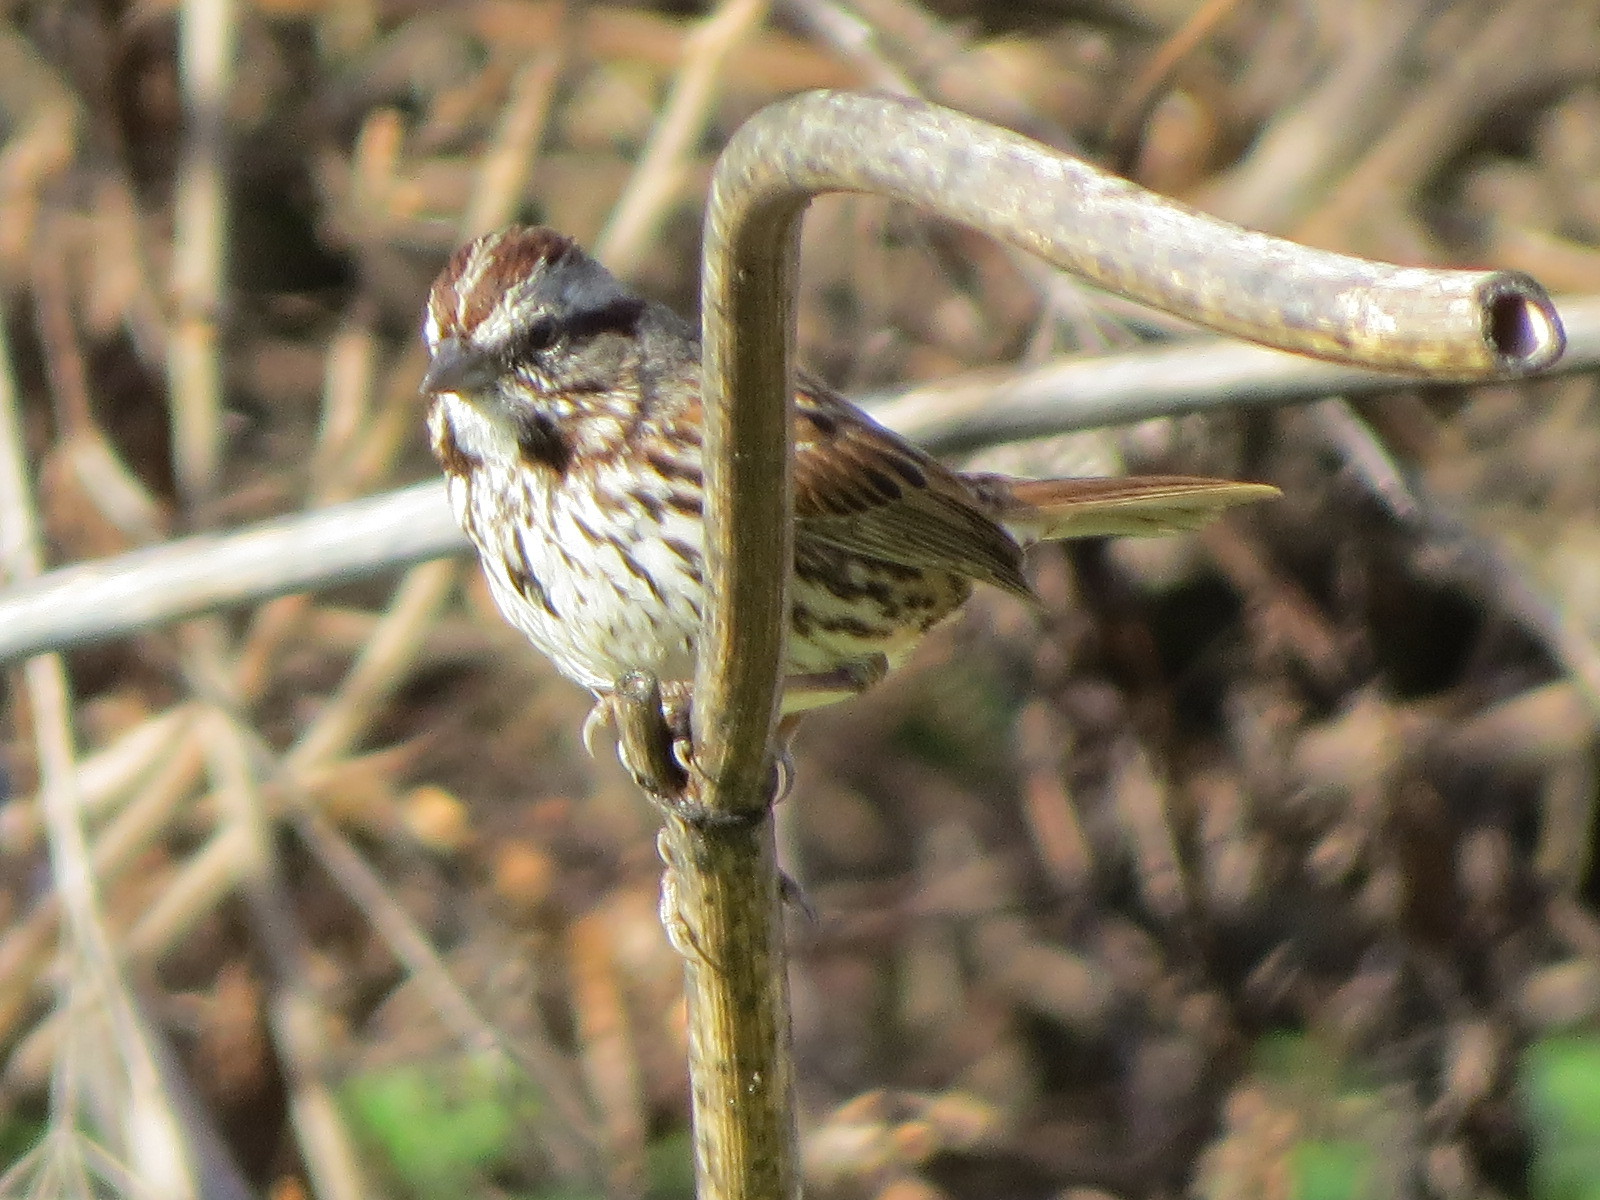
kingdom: Animalia
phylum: Chordata
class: Aves
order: Passeriformes
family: Passerellidae
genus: Melospiza
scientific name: Melospiza melodia
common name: Song sparrow
